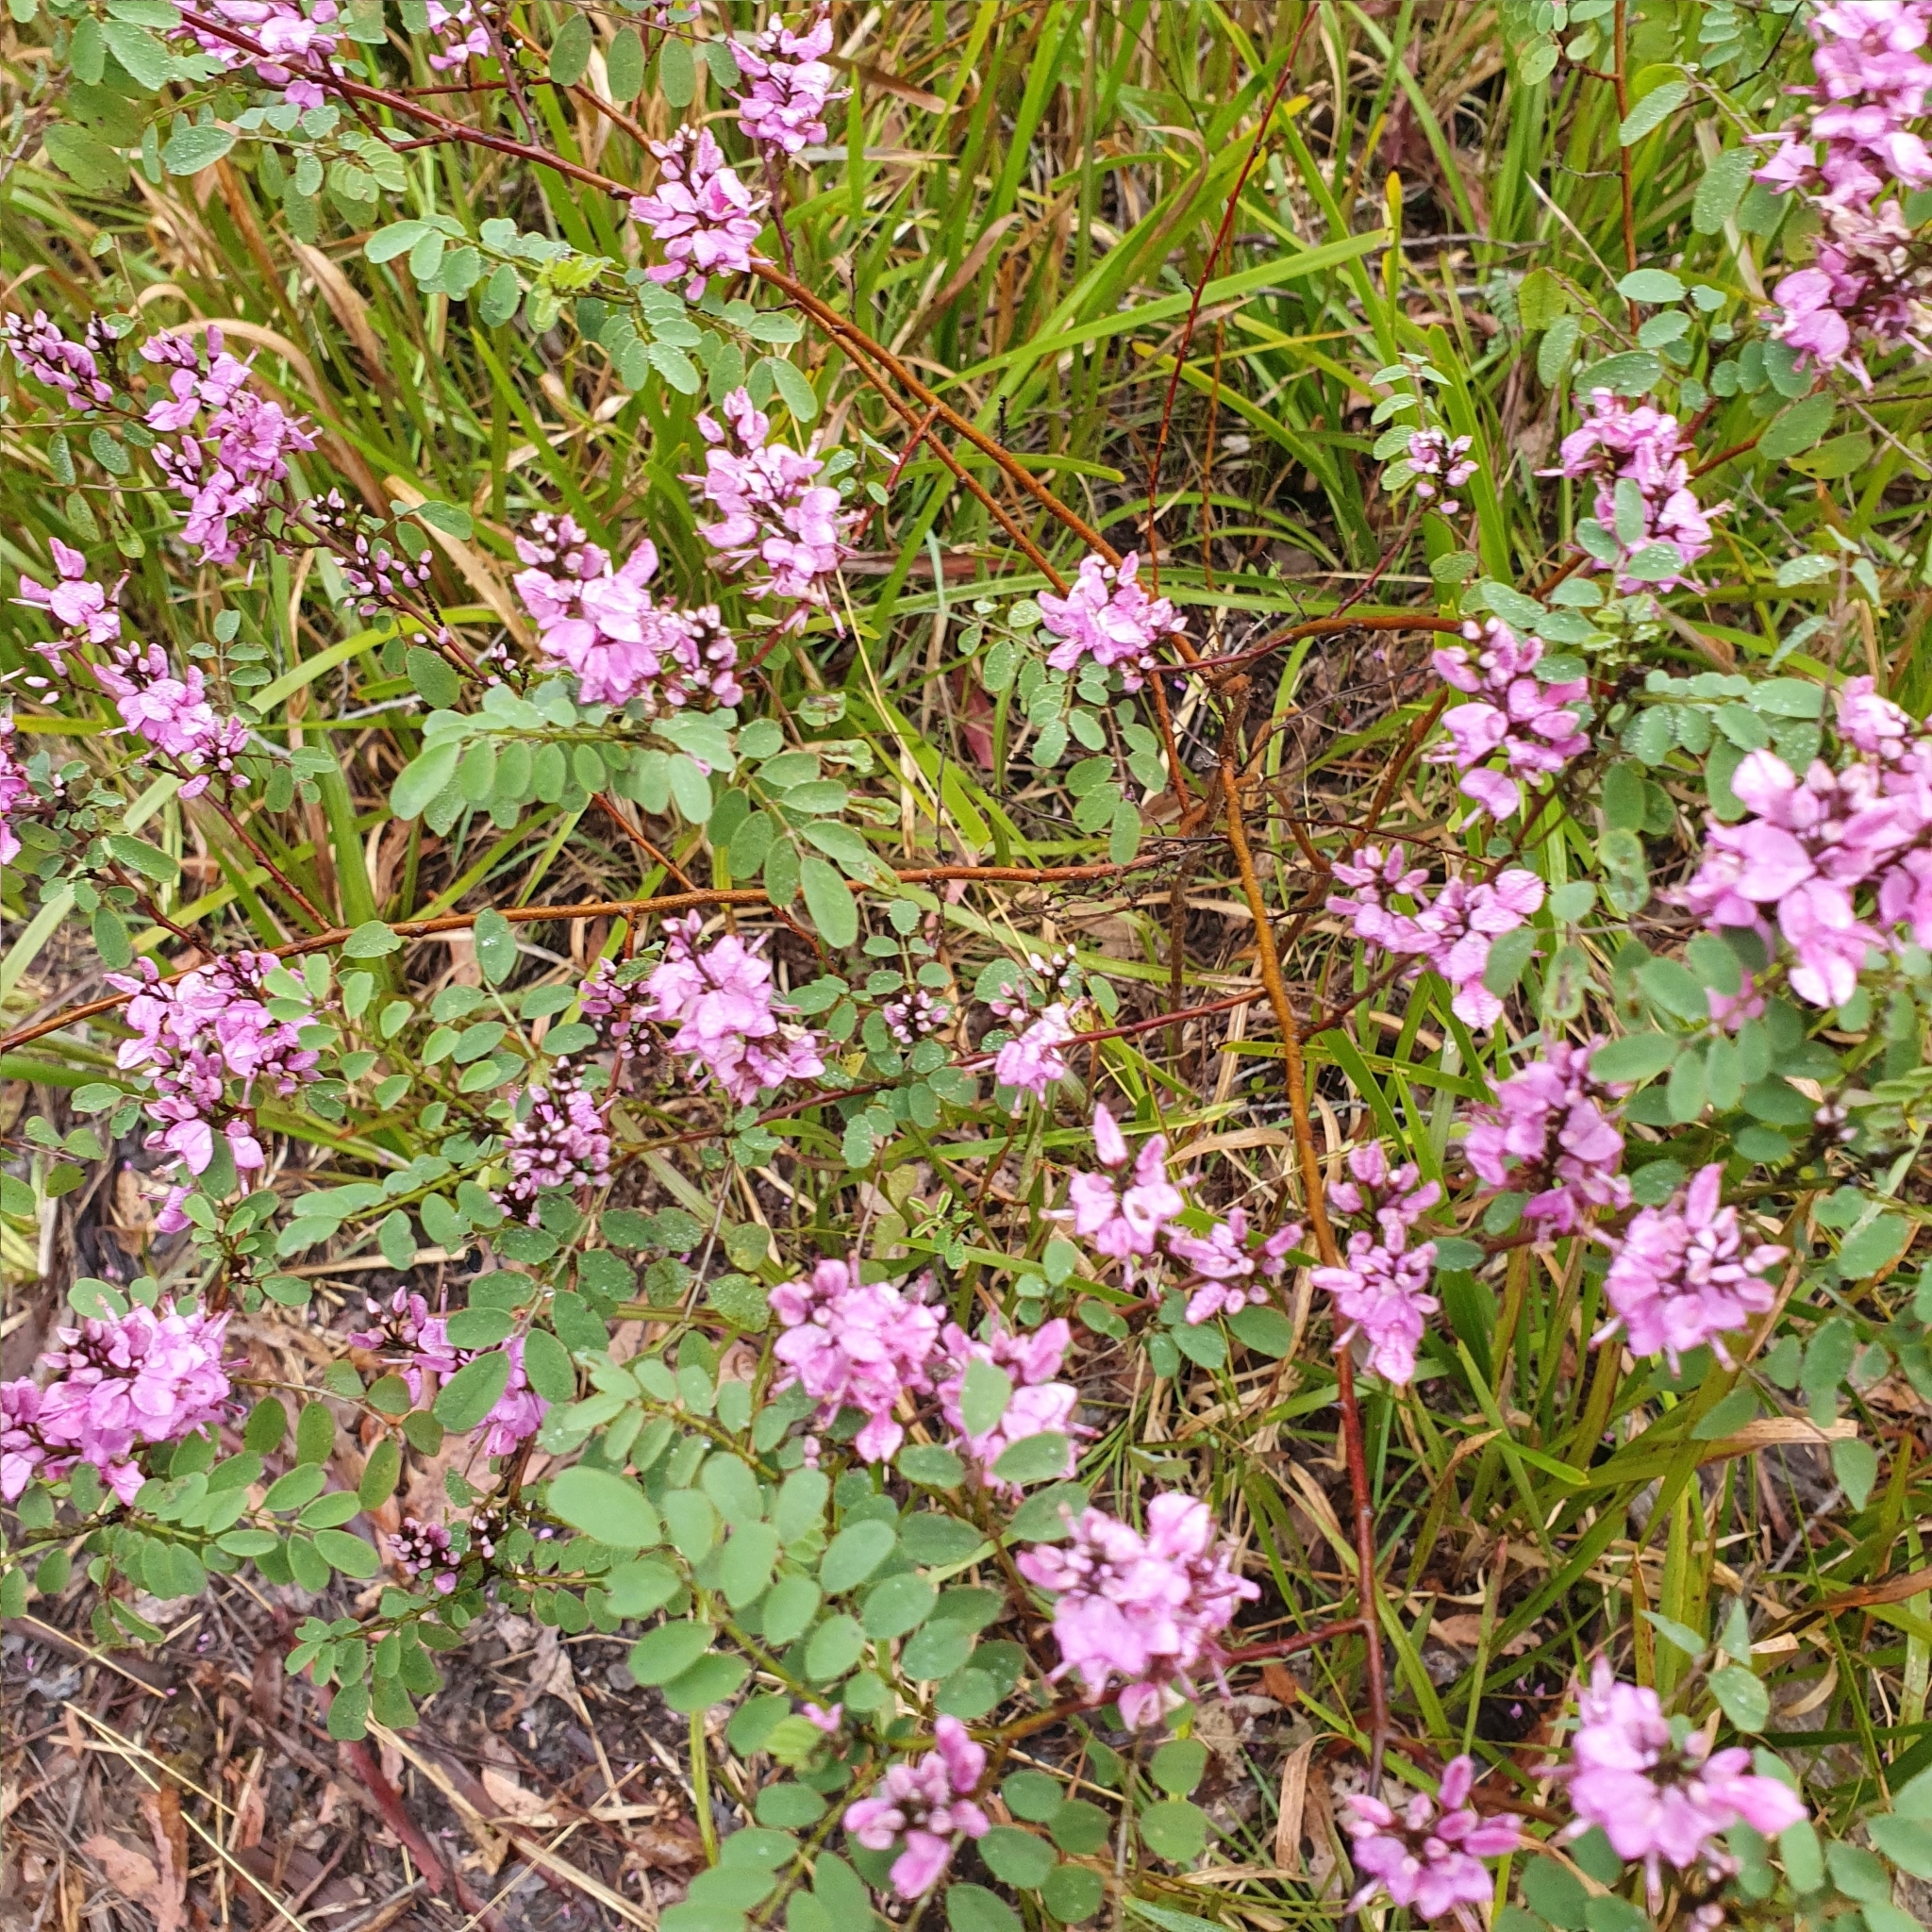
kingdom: Plantae
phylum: Tracheophyta
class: Magnoliopsida
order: Fabales
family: Fabaceae
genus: Indigofera
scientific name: Indigofera australis
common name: Australian indigo
